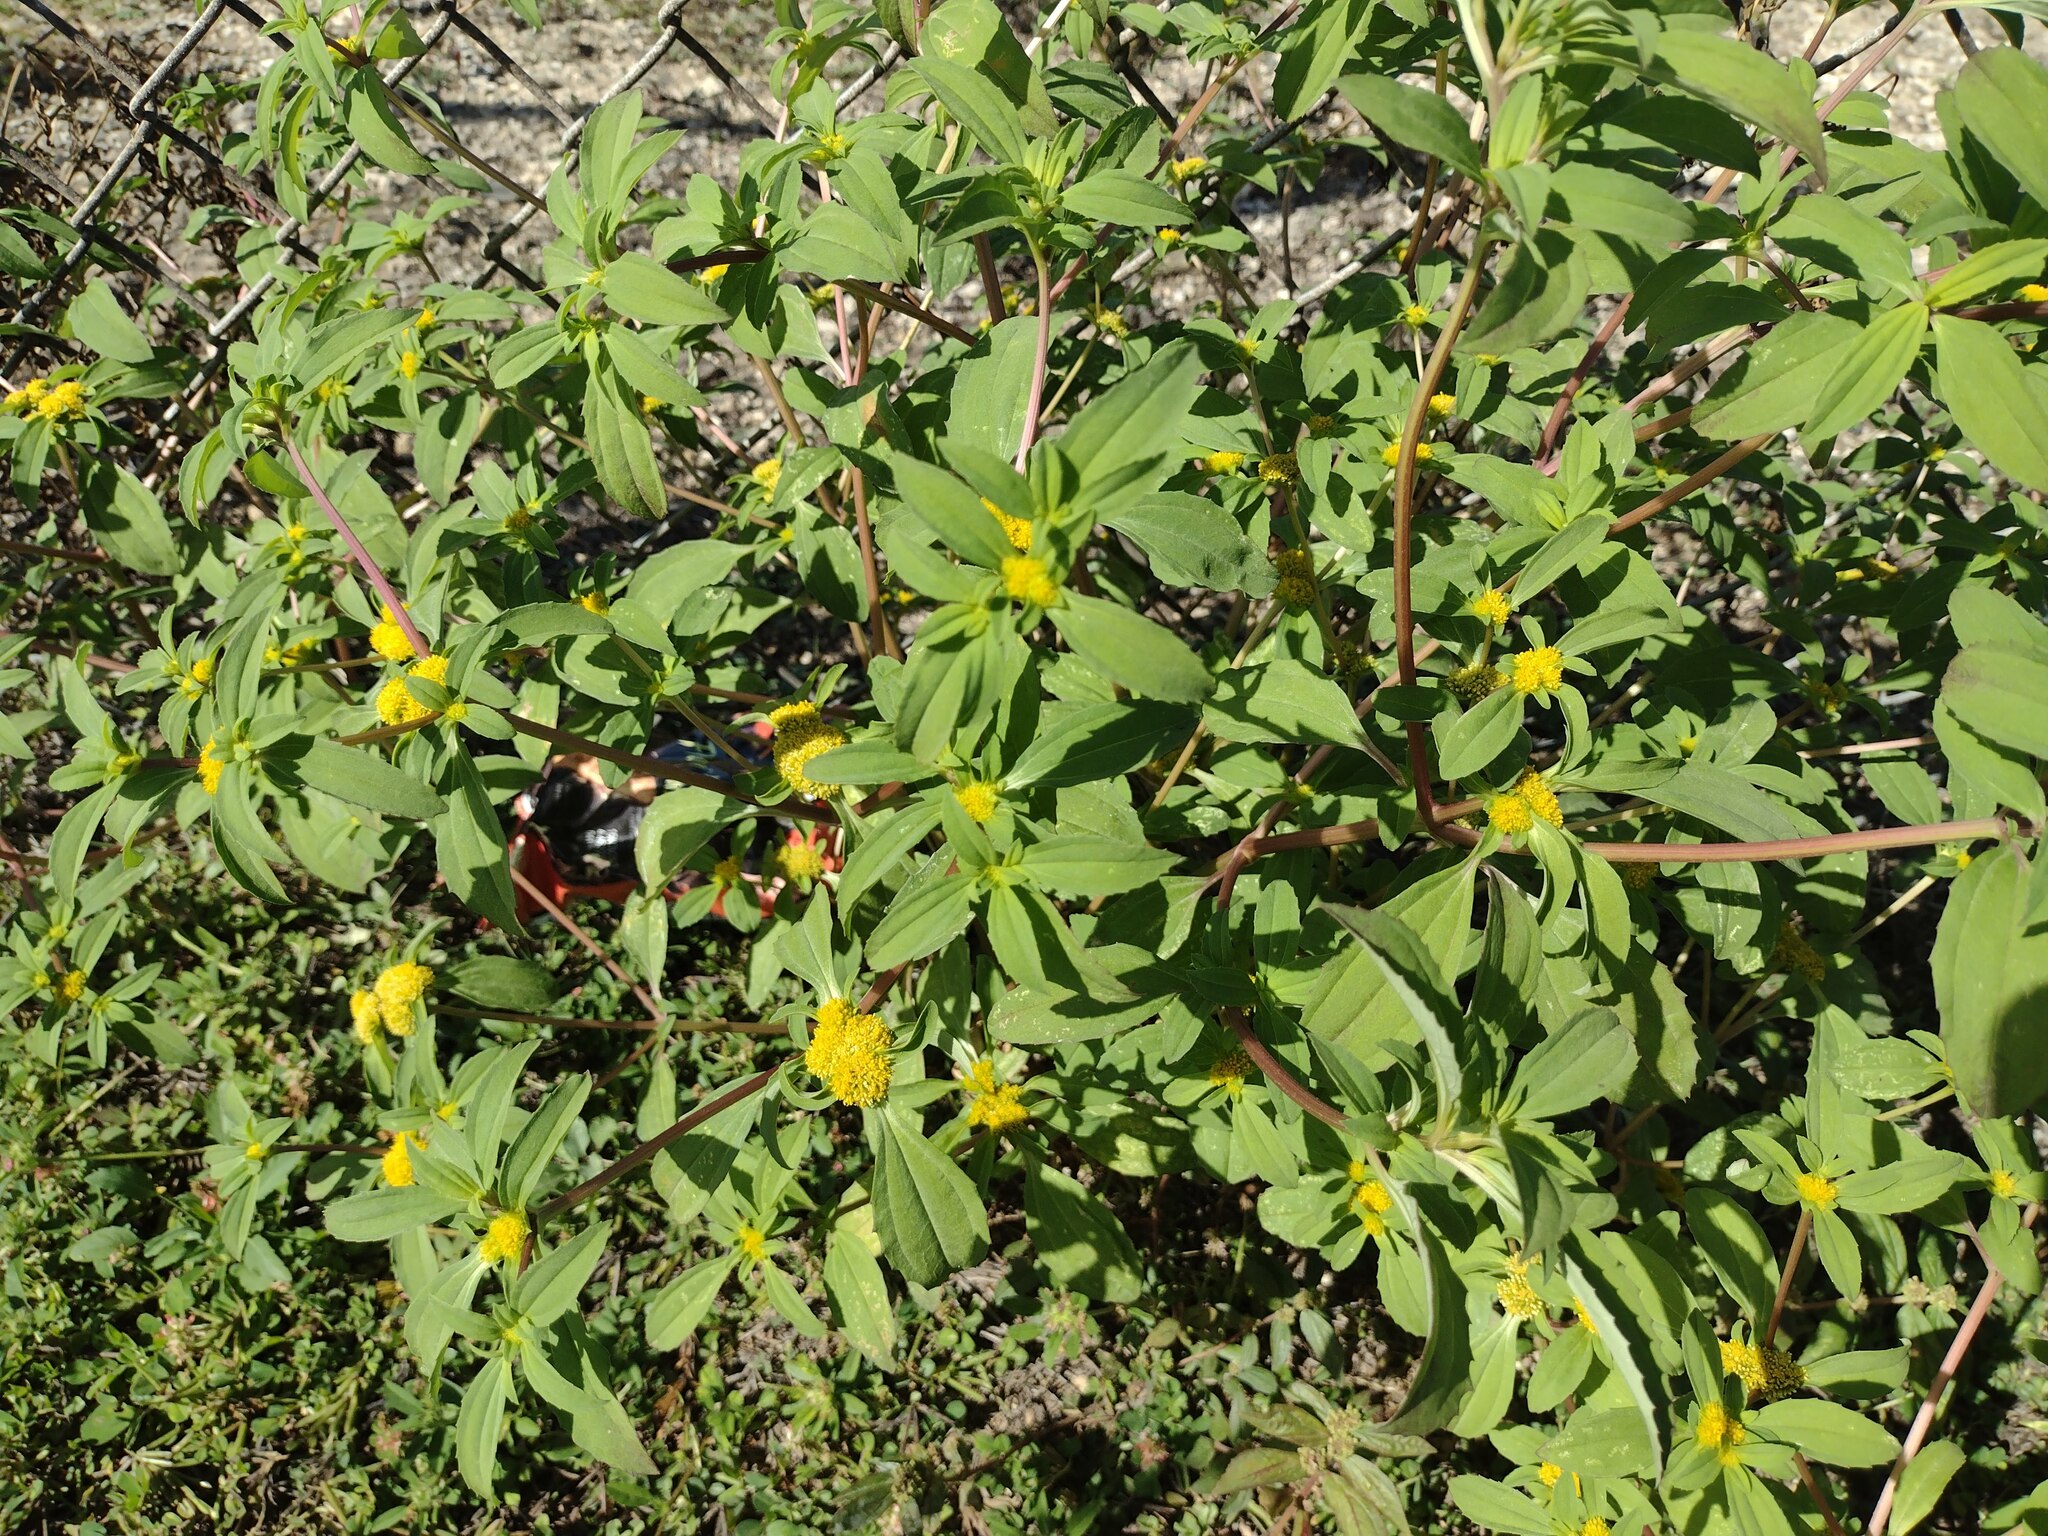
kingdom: Plantae
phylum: Tracheophyta
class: Magnoliopsida
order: Asterales
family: Asteraceae
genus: Flaveria
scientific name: Flaveria trinervia
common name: Clustered yellowtops
